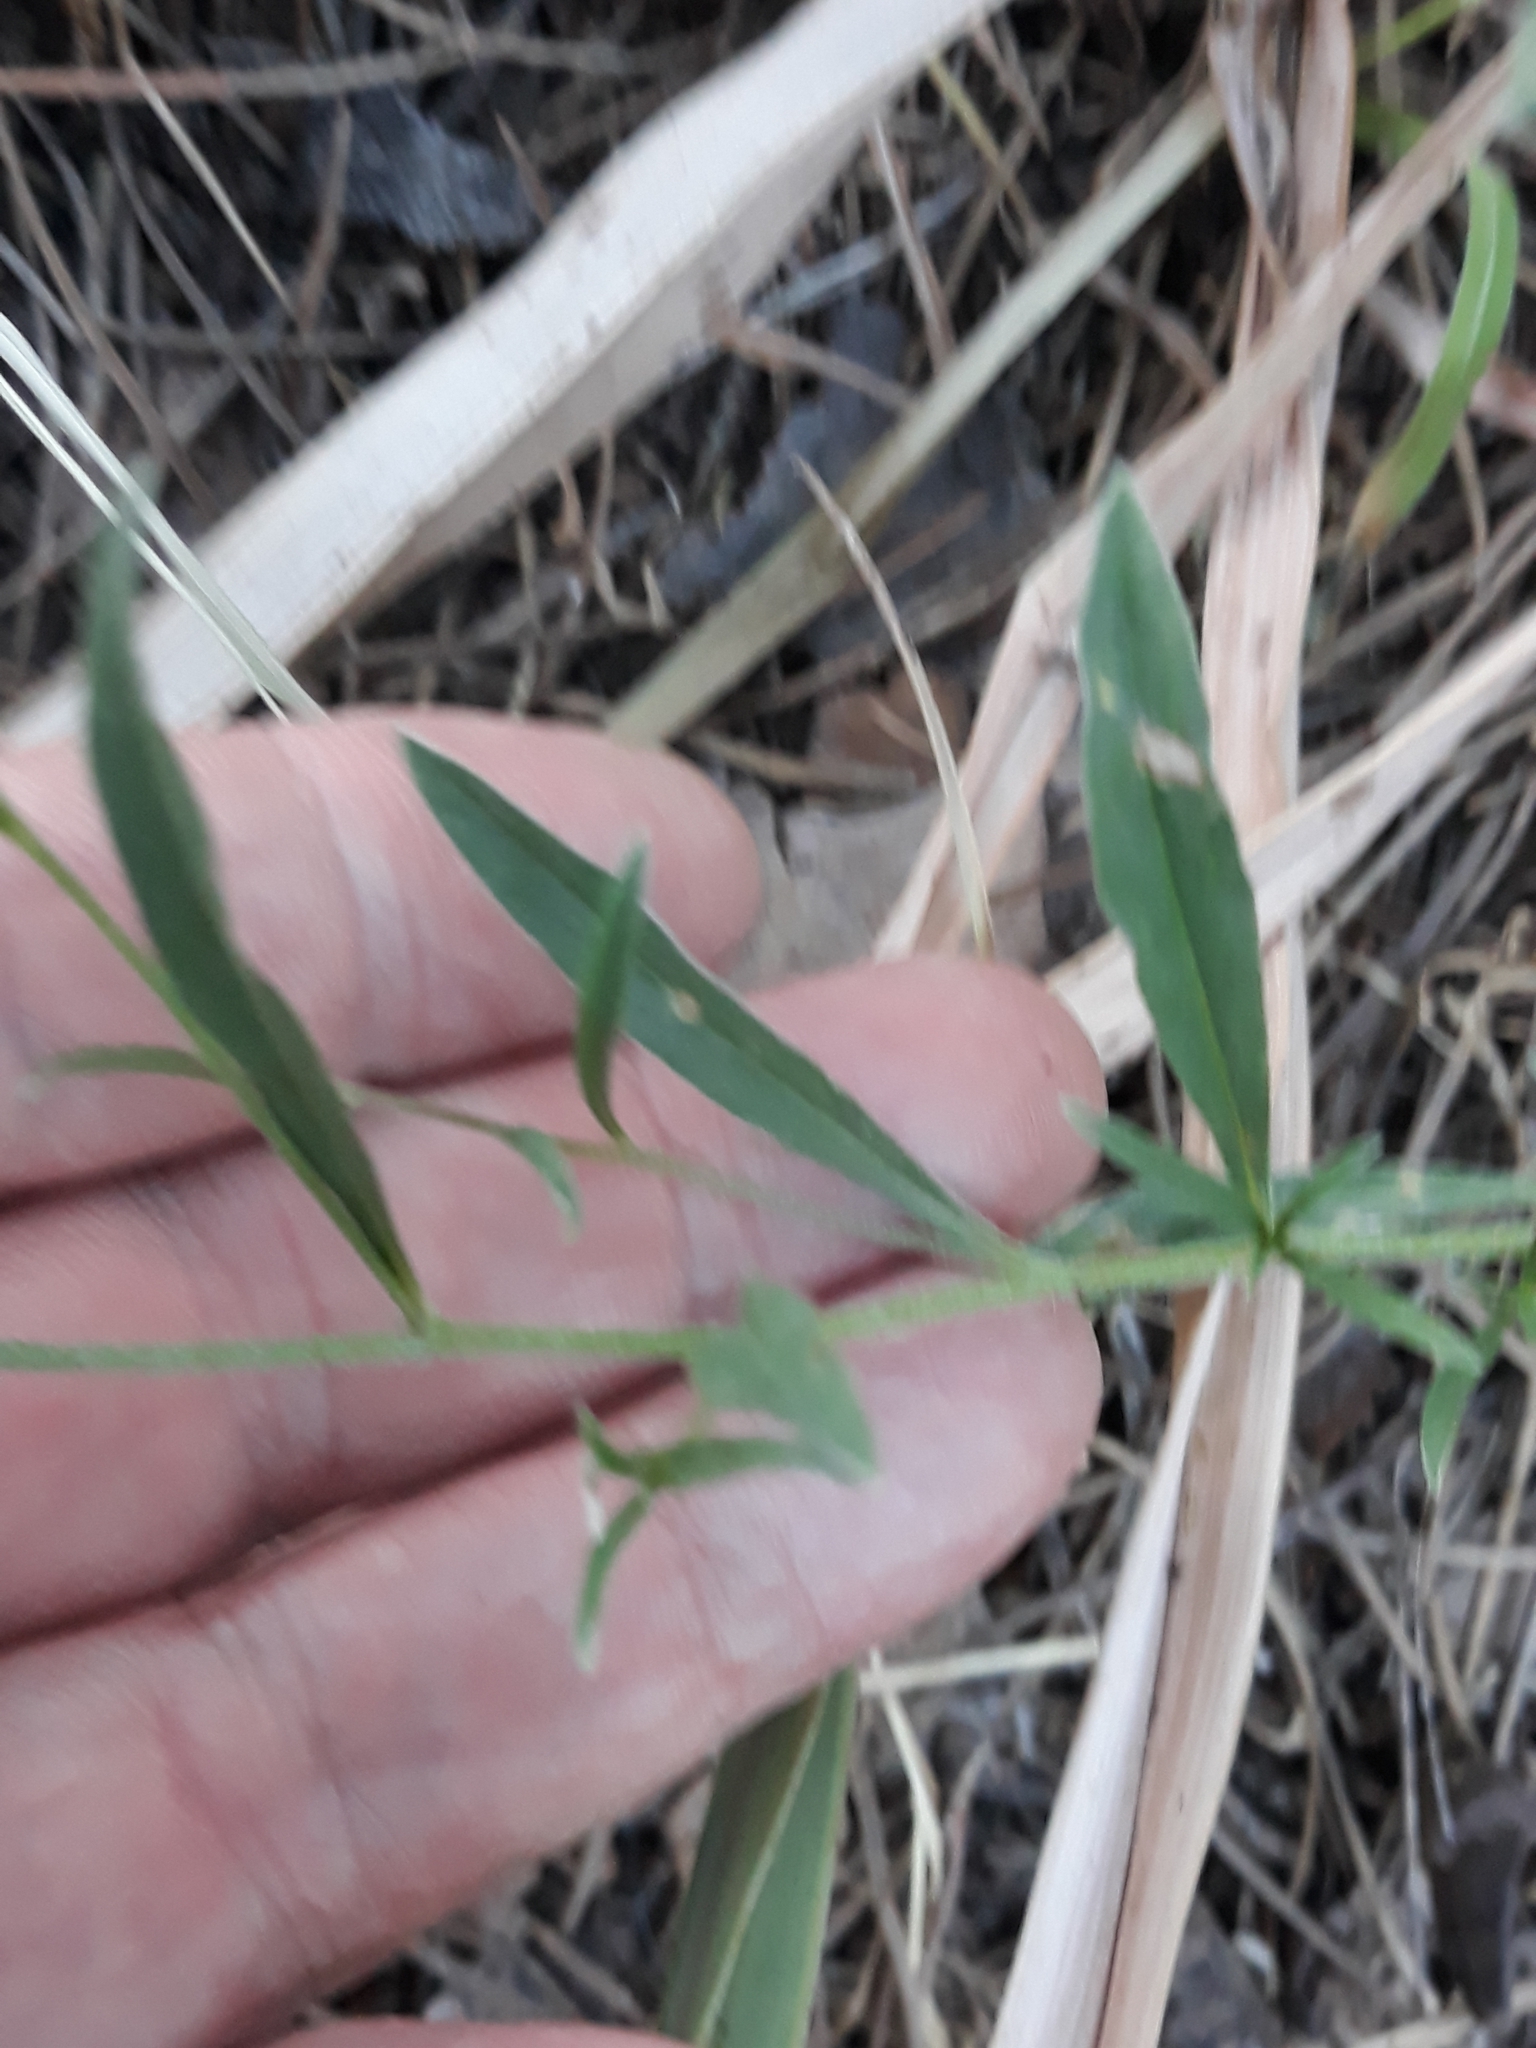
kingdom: Plantae
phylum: Tracheophyta
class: Magnoliopsida
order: Solanales
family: Convolvulaceae
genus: Convolvulus
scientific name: Convolvulus cantabrica
